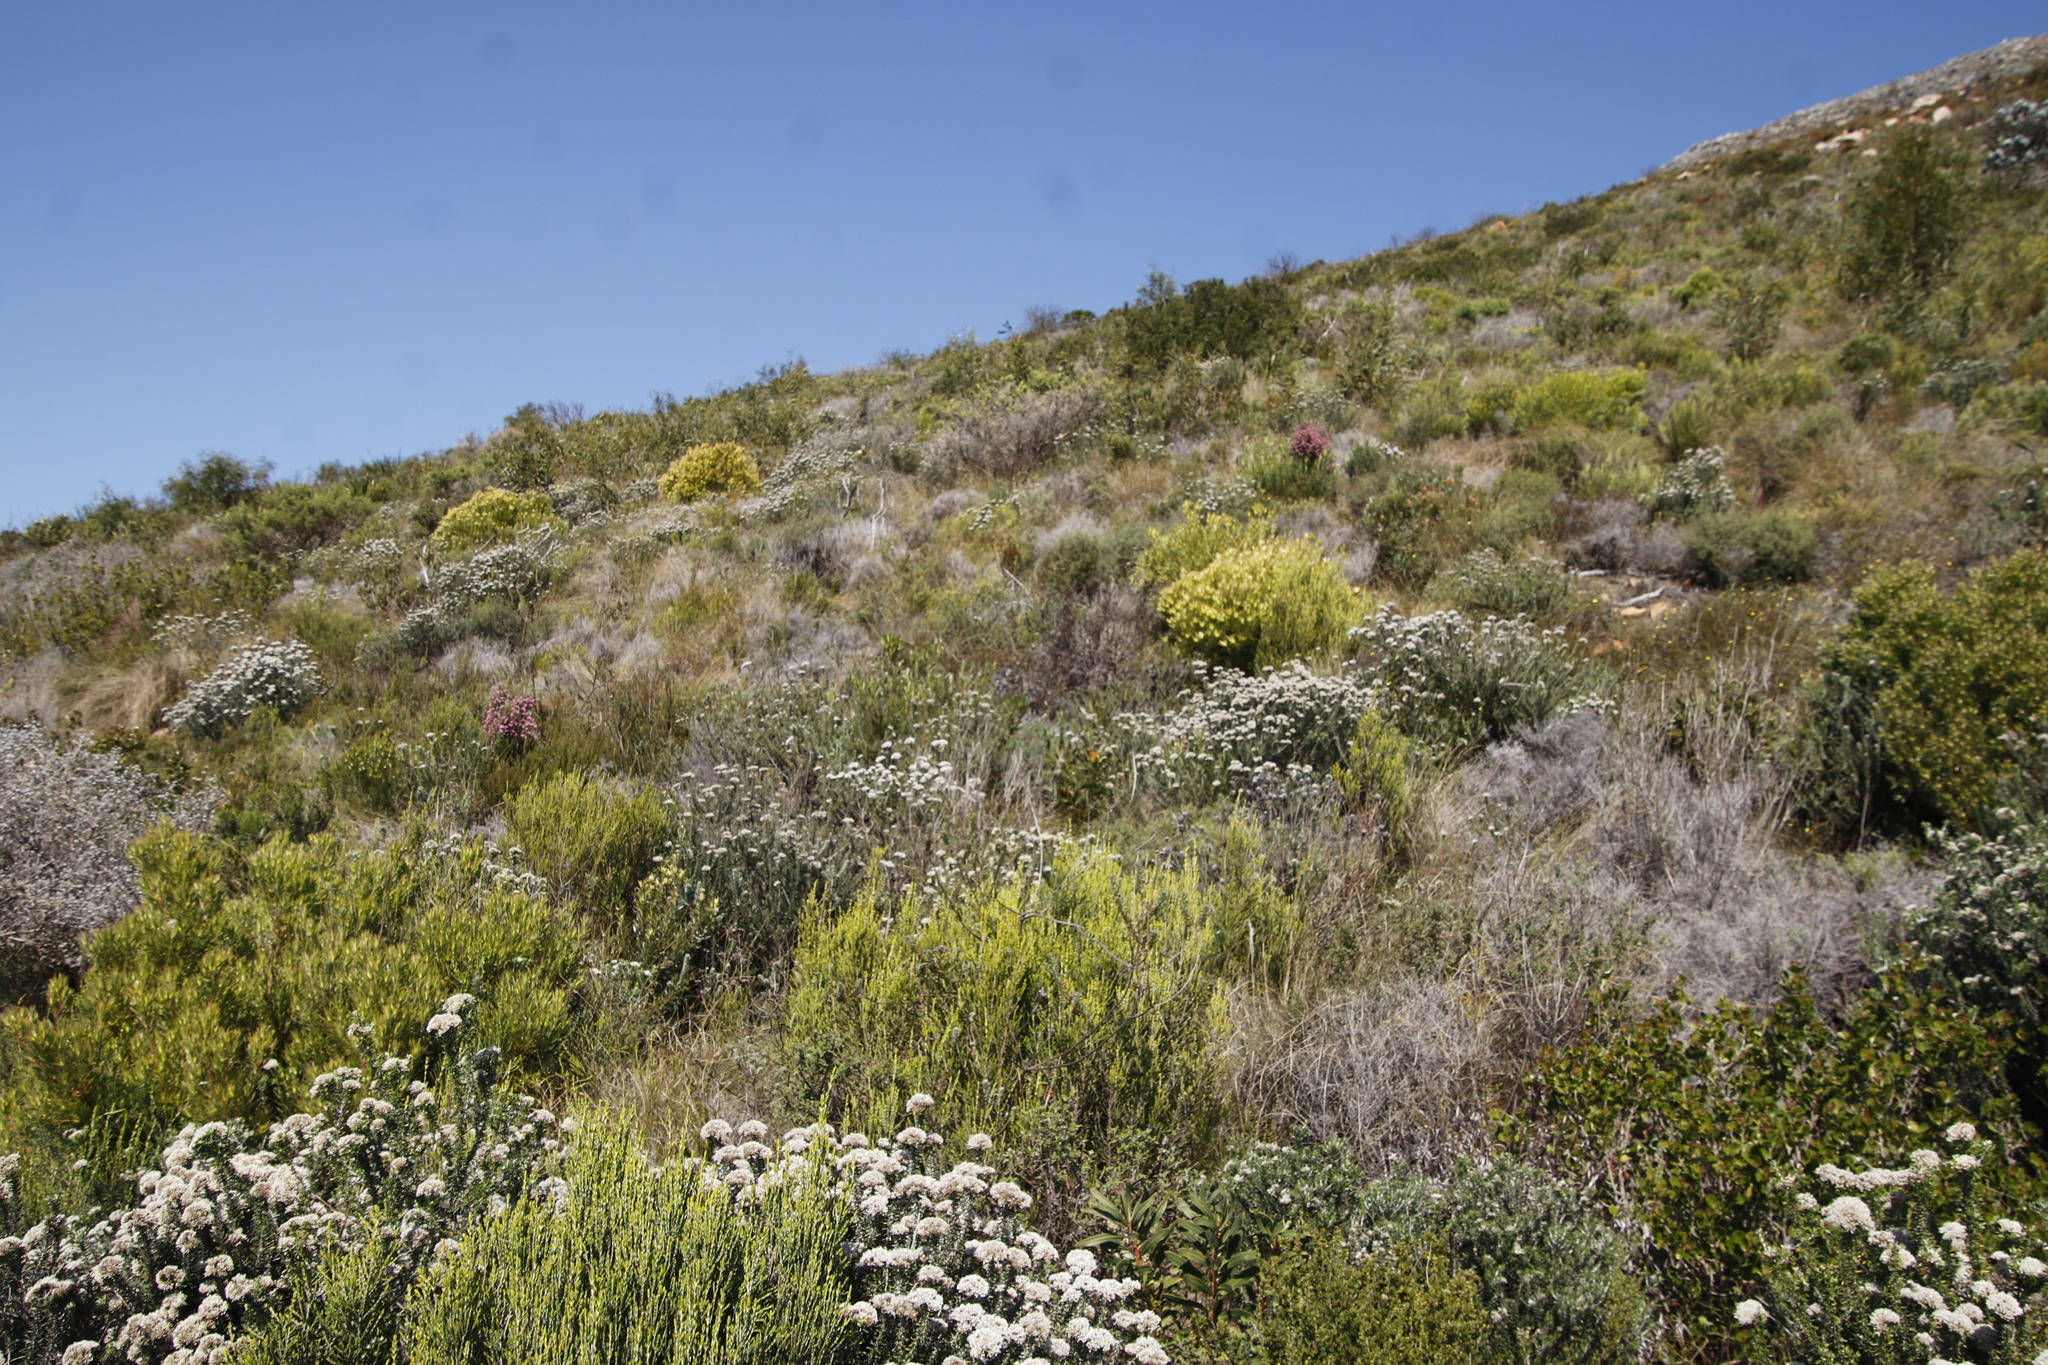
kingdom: Plantae
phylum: Tracheophyta
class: Magnoliopsida
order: Ericales
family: Ericaceae
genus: Erica
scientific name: Erica baccans
